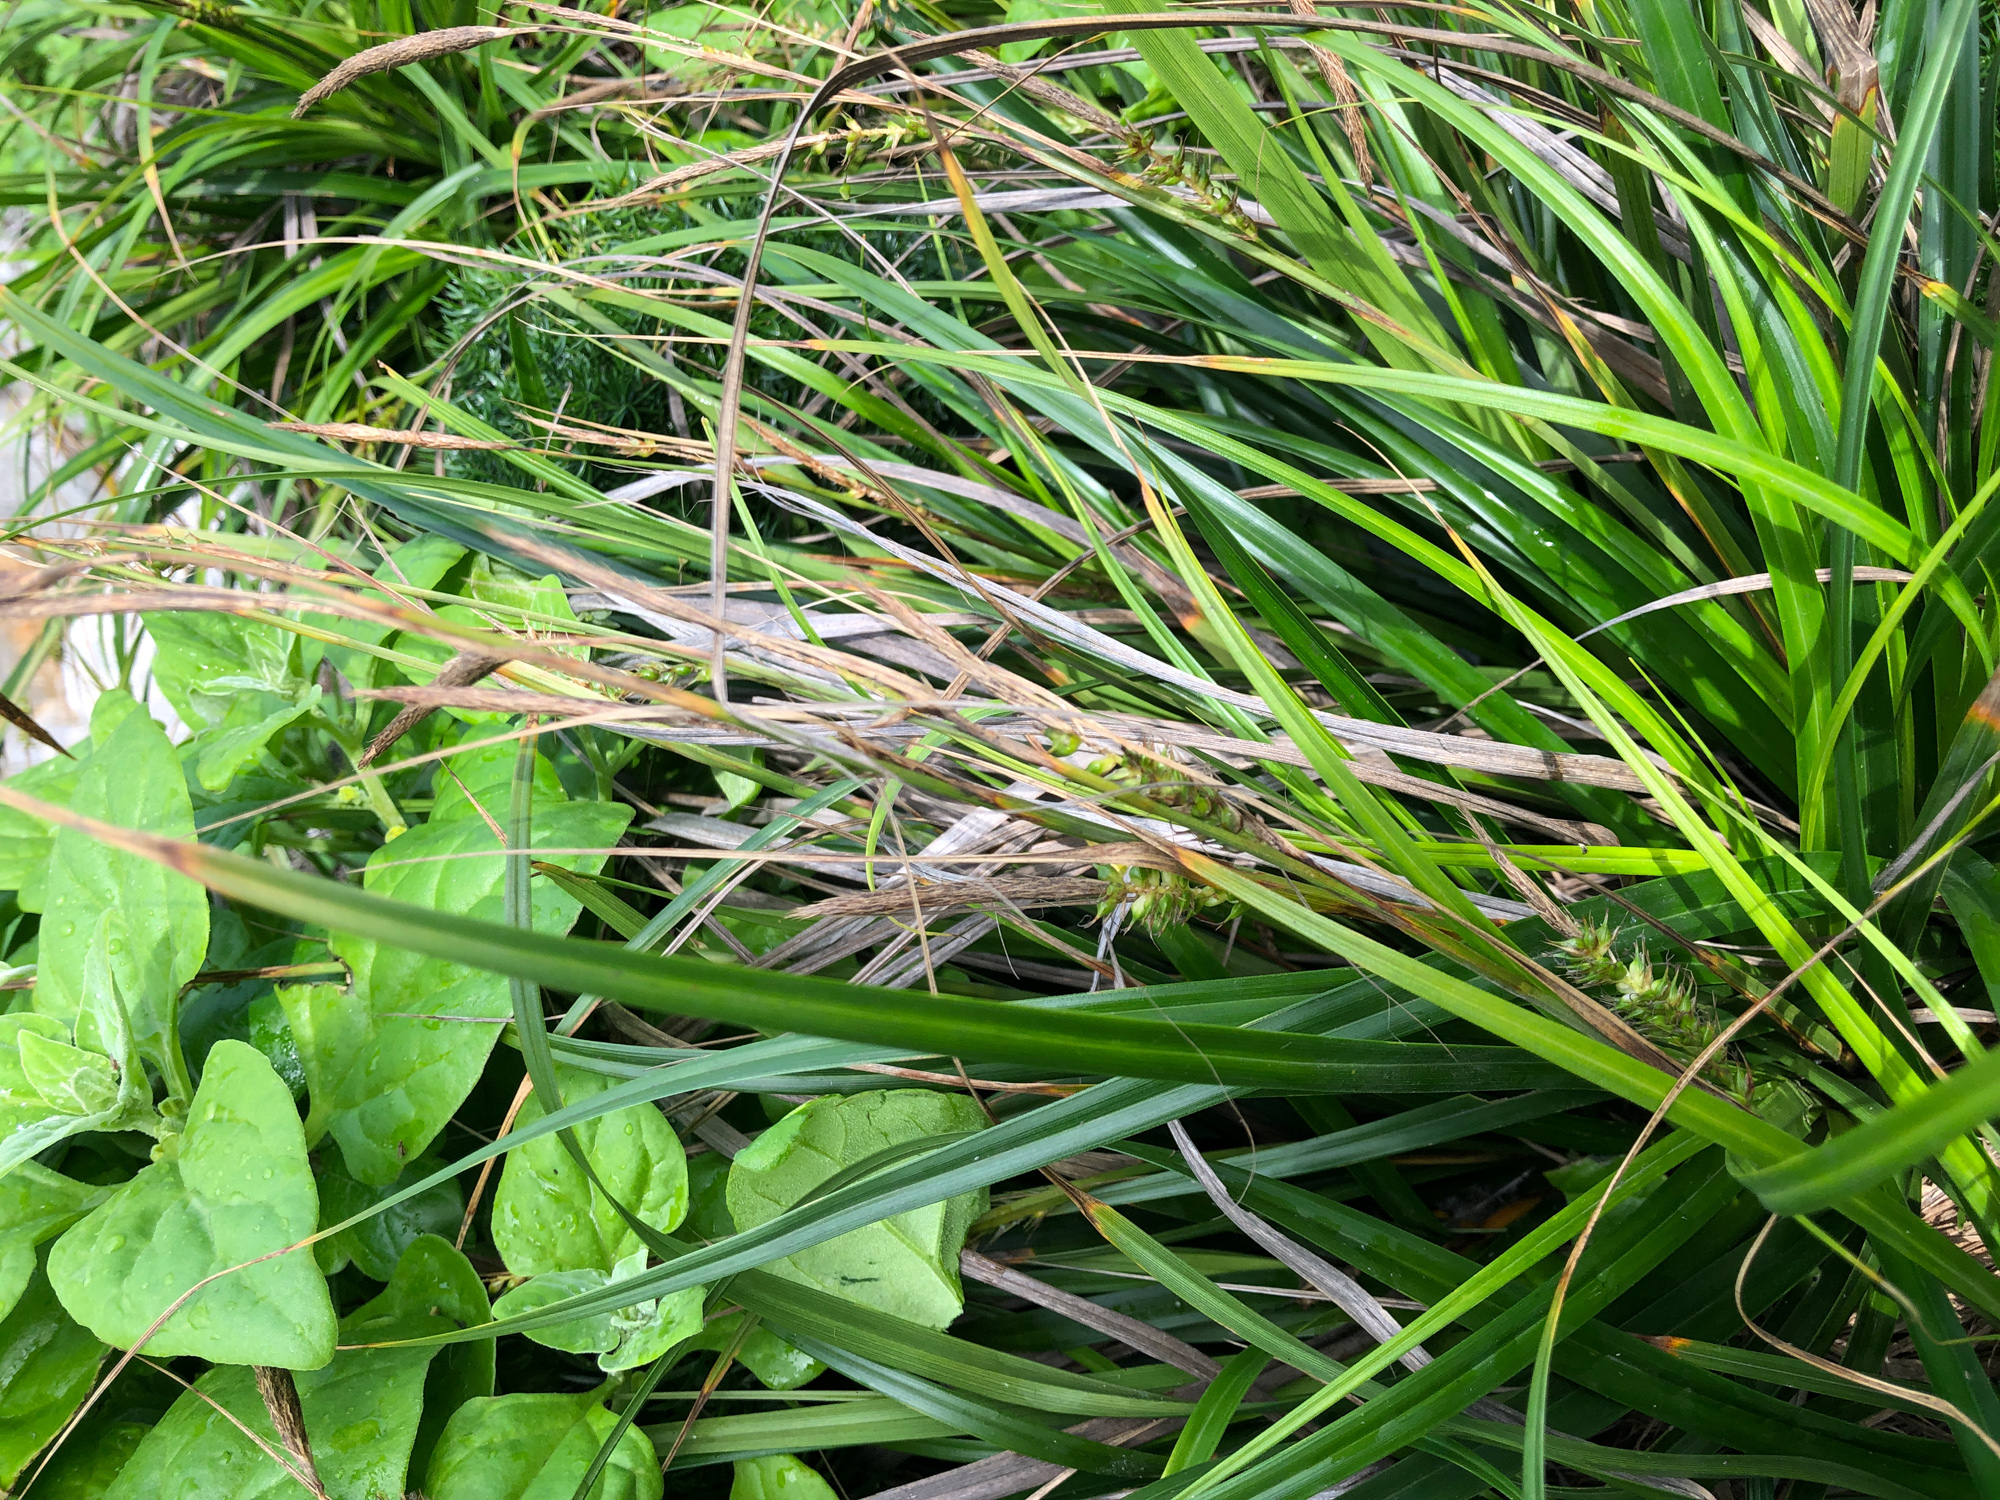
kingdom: Plantae
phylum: Tracheophyta
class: Liliopsida
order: Poales
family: Cyperaceae
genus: Carex
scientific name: Carex wahuensis
